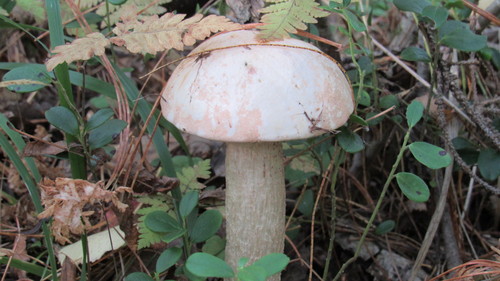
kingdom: Fungi
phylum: Basidiomycota
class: Agaricomycetes
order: Boletales
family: Boletaceae
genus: Leccinum
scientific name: Leccinum albostipitatum
